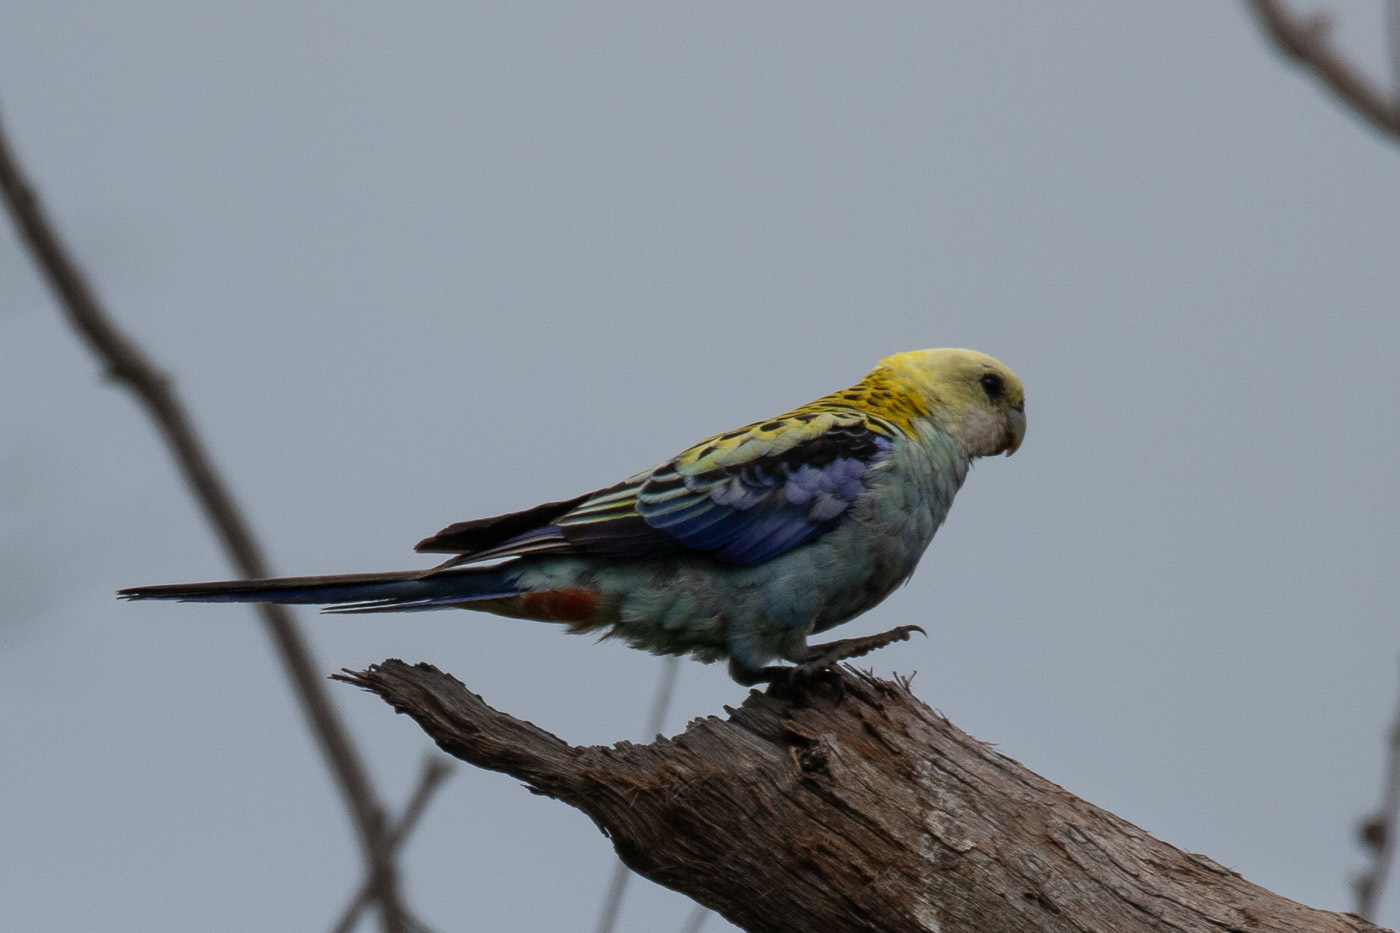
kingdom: Animalia
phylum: Chordata
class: Aves
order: Psittaciformes
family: Psittacidae
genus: Platycercus
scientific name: Platycercus adscitus
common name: Pale-headed rosella
